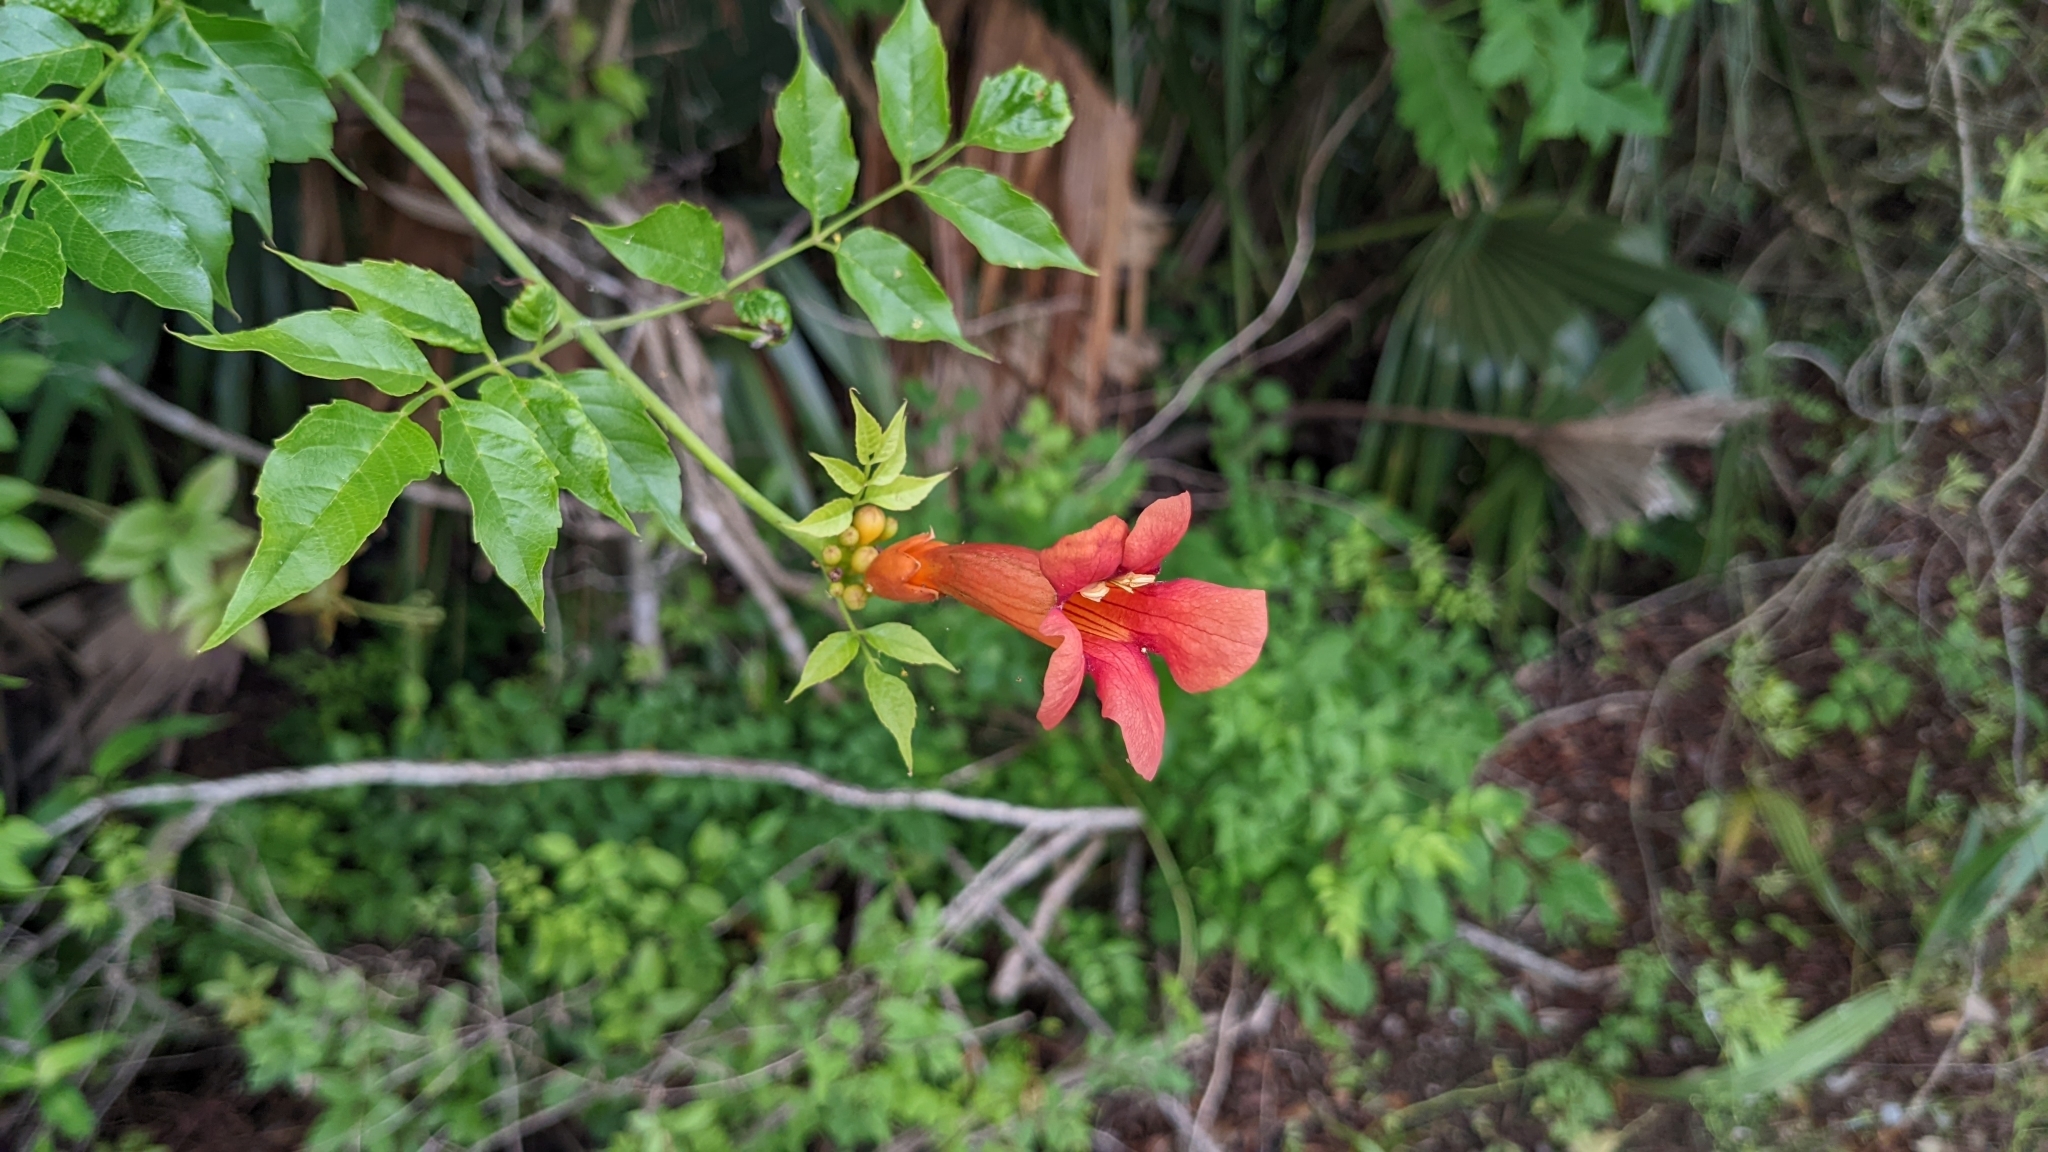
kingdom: Plantae
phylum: Tracheophyta
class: Magnoliopsida
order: Lamiales
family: Bignoniaceae
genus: Campsis
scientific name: Campsis radicans
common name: Trumpet-creeper
